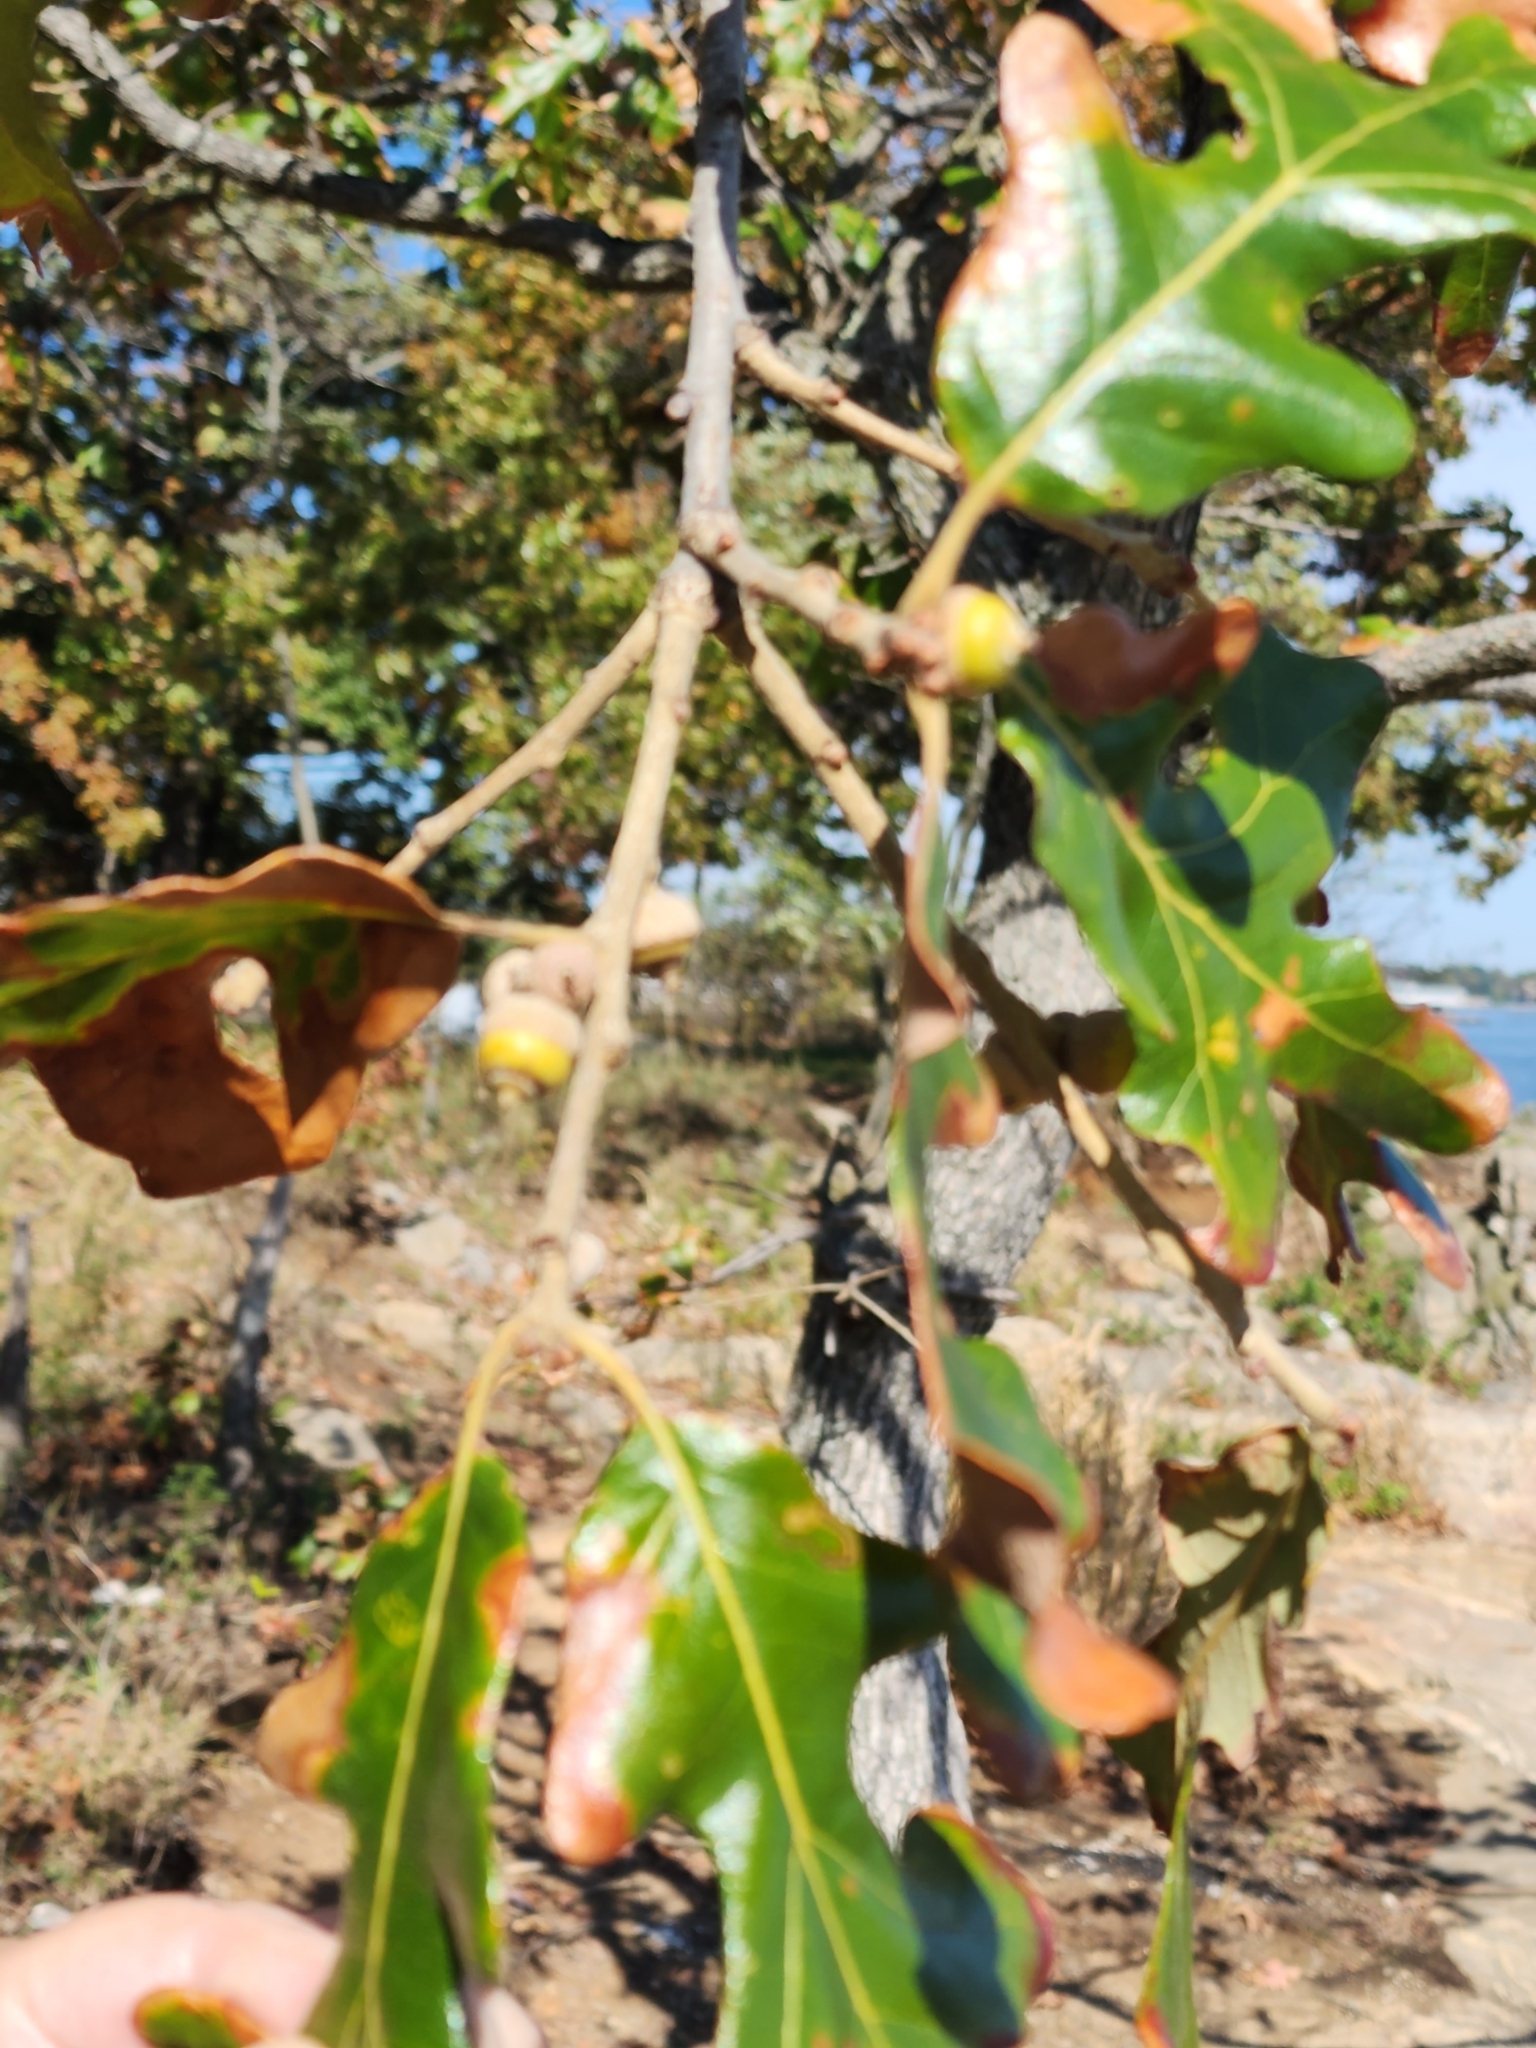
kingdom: Plantae
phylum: Tracheophyta
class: Magnoliopsida
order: Fagales
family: Fagaceae
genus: Quercus
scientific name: Quercus stellata
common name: Post oak
